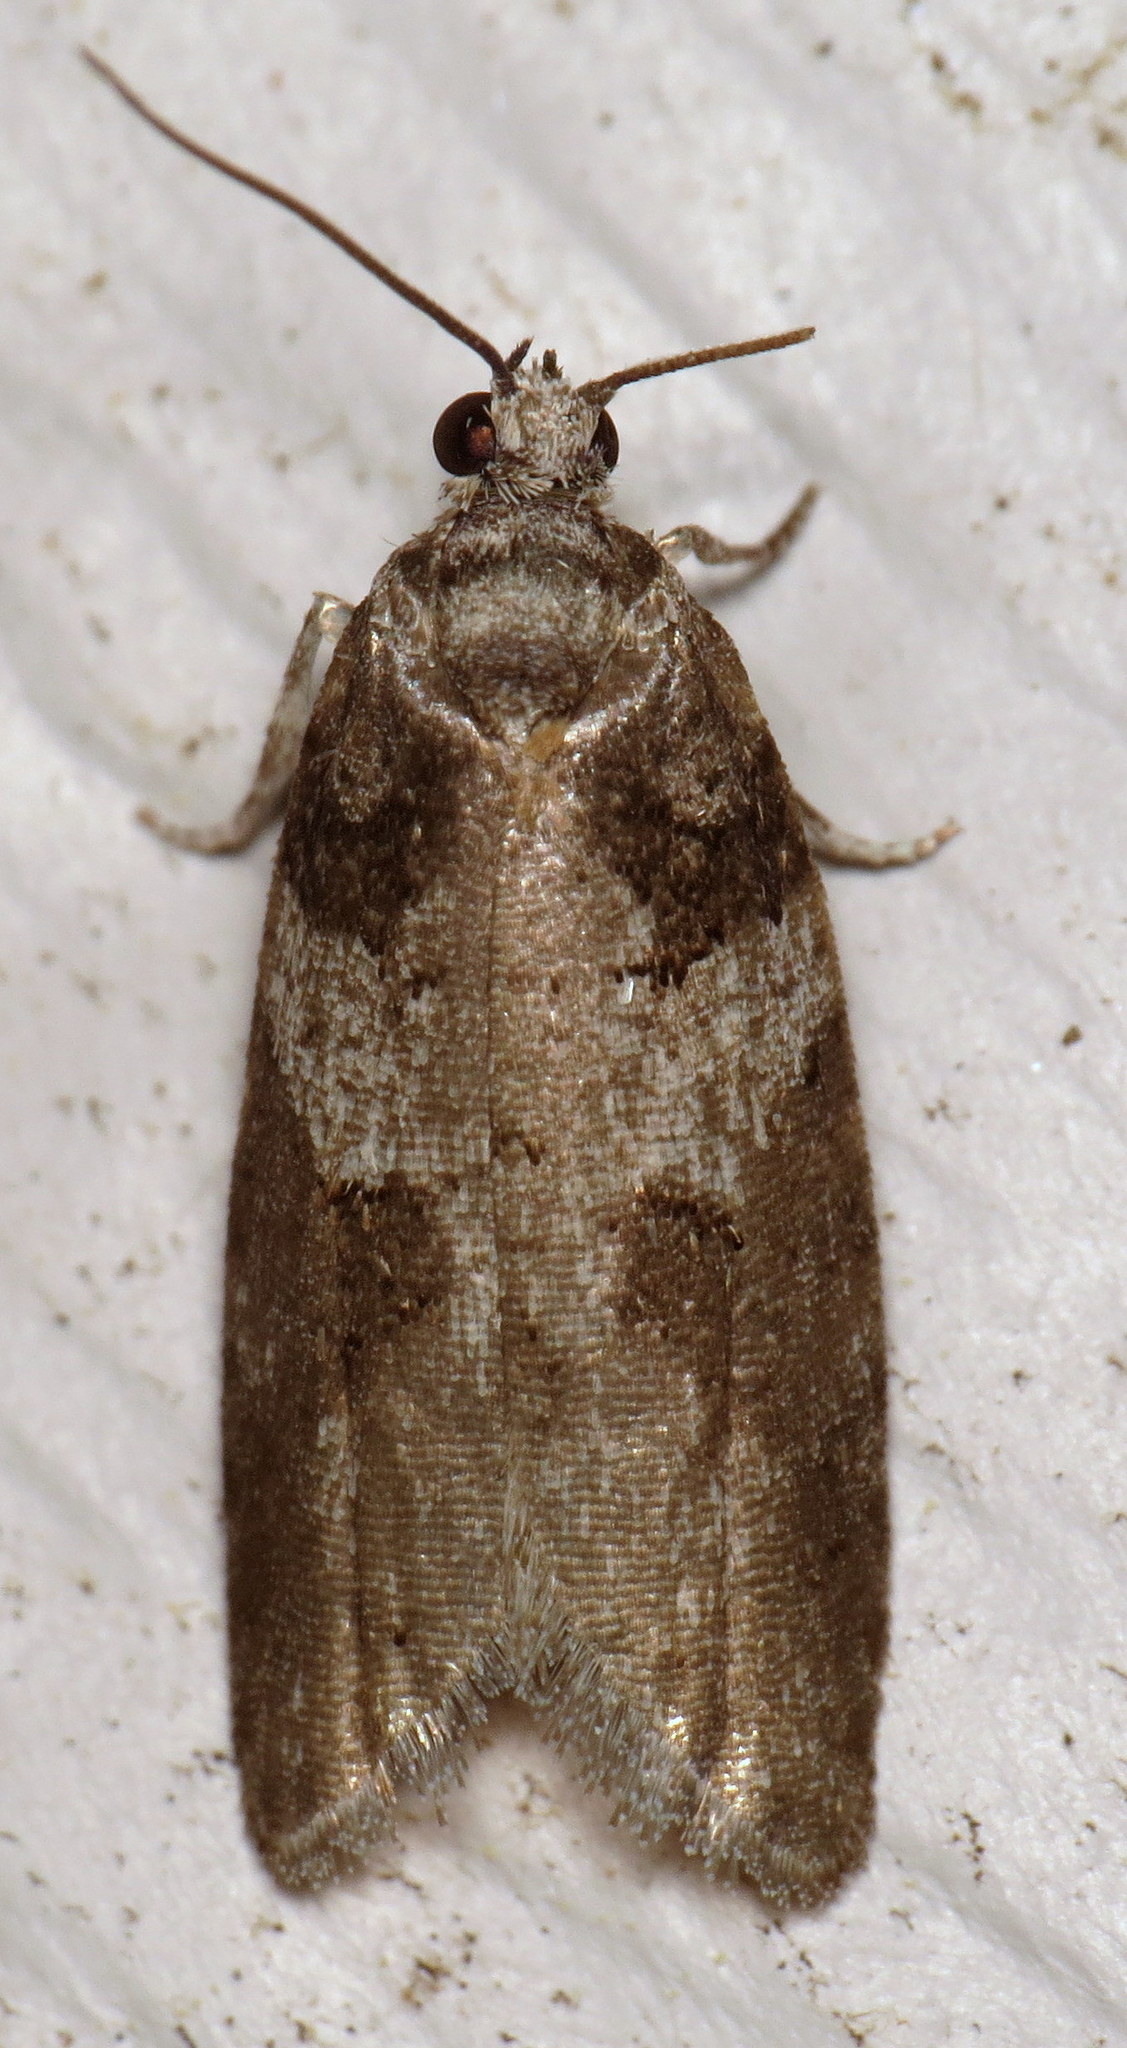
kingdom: Animalia
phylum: Arthropoda
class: Insecta
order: Lepidoptera
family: Tortricidae
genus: Decodes
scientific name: Decodes basiplagana
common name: Gray-marked tortricid
